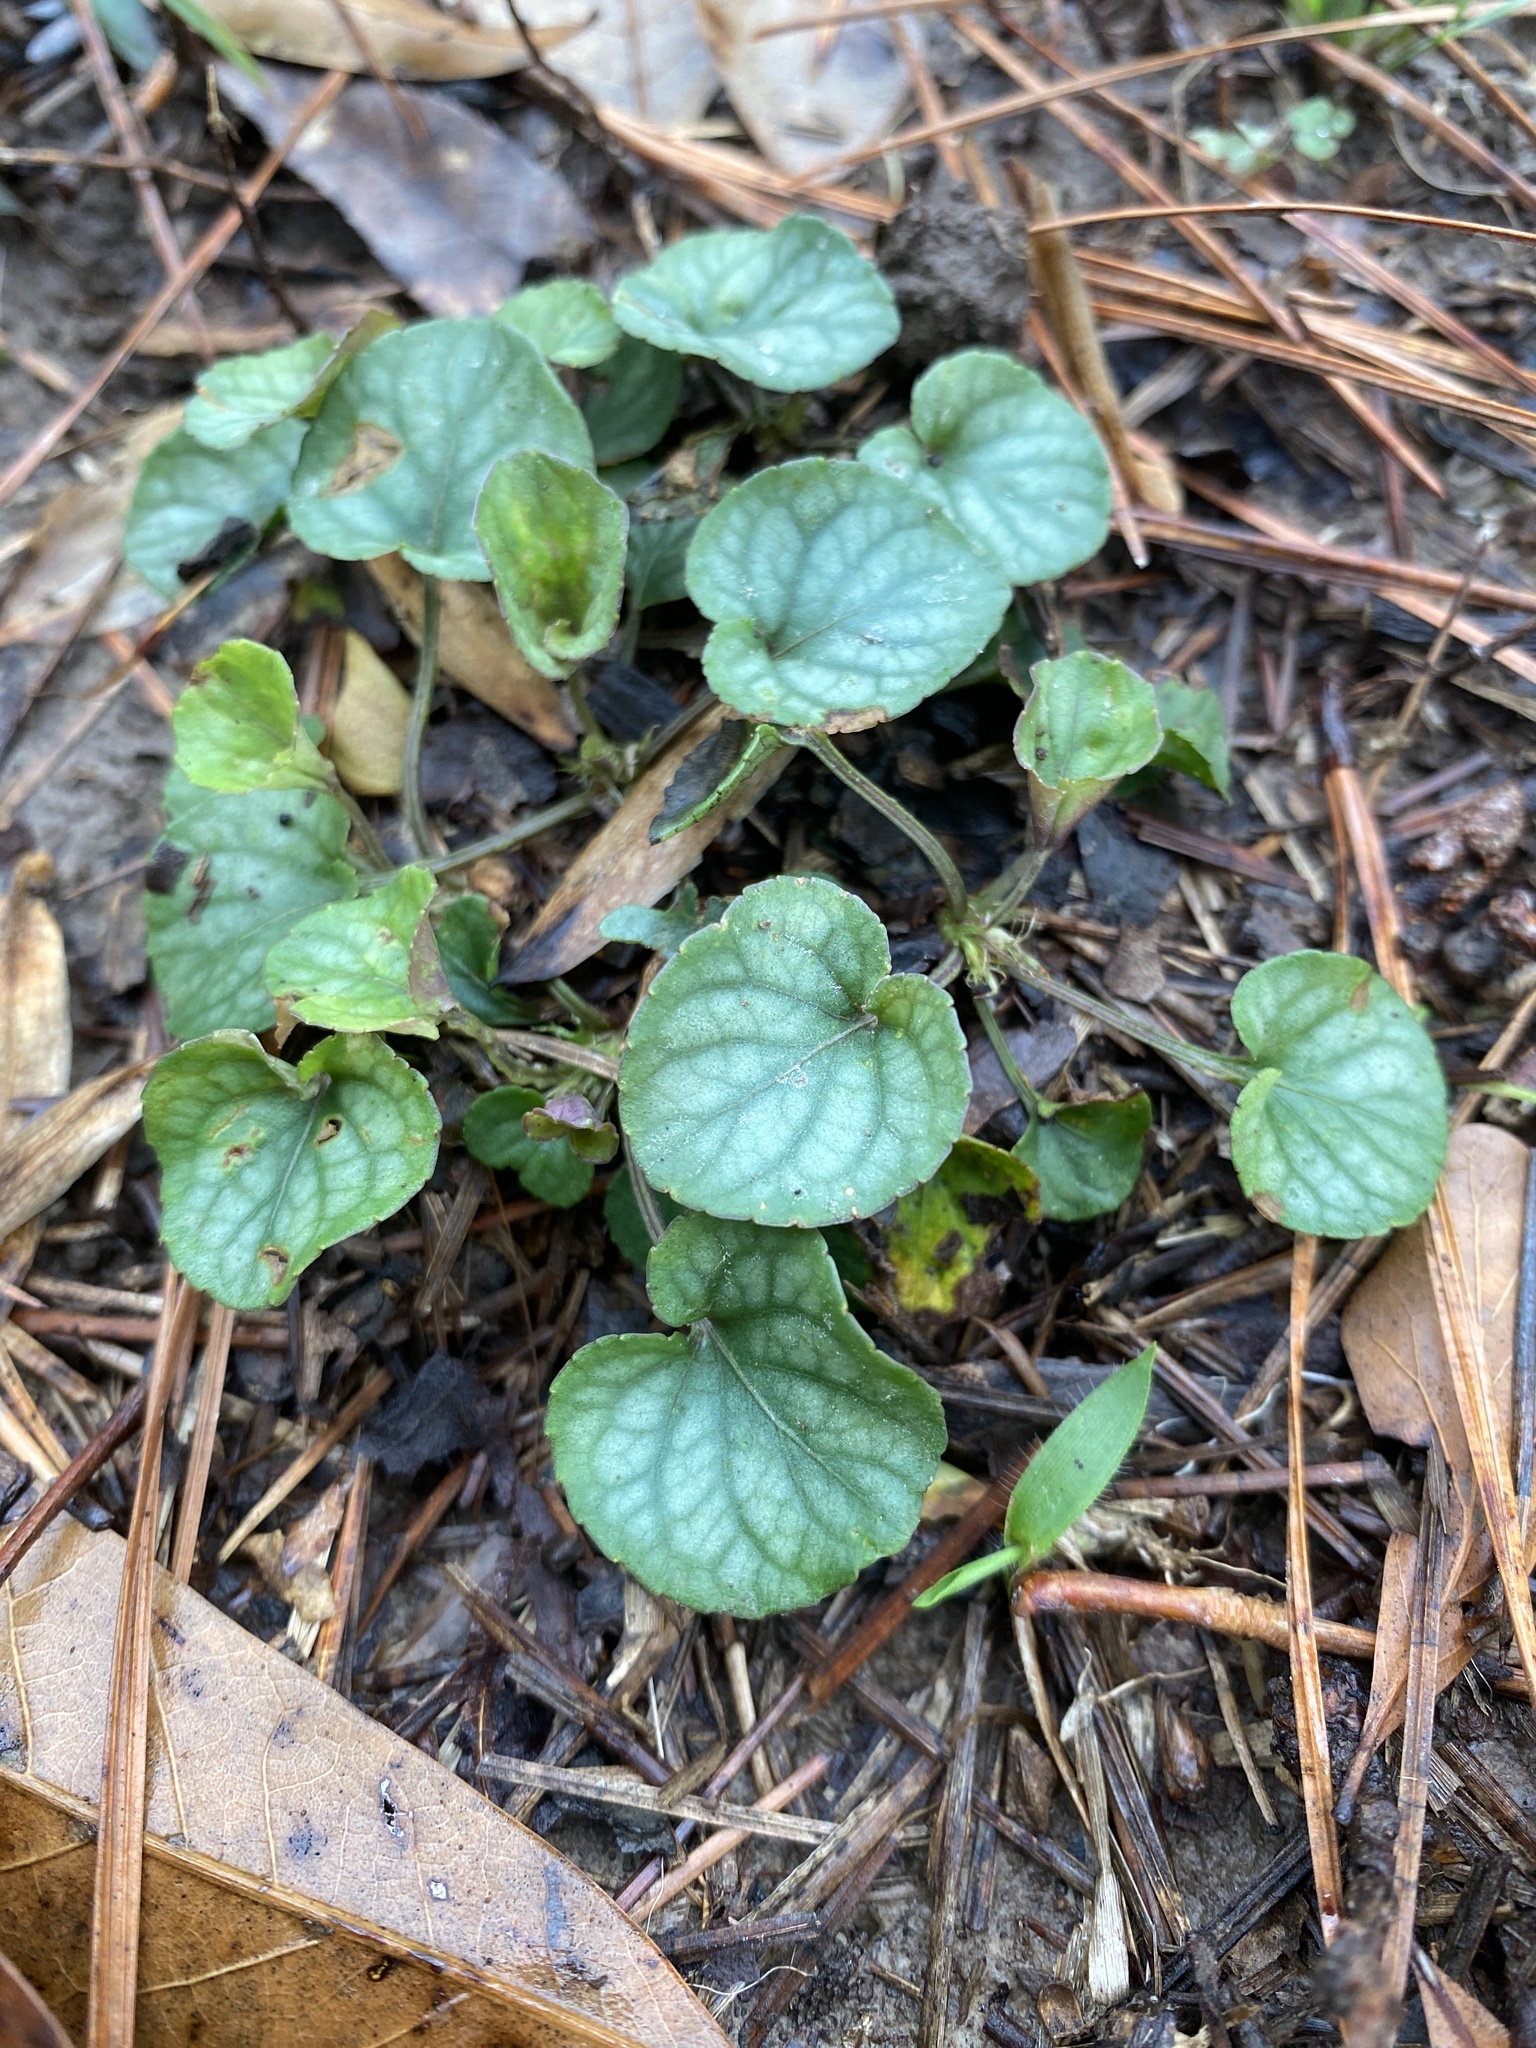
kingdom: Plantae
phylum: Tracheophyta
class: Magnoliopsida
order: Malpighiales
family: Violaceae
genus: Viola
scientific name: Viola walteri
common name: Prostrate southern violet
